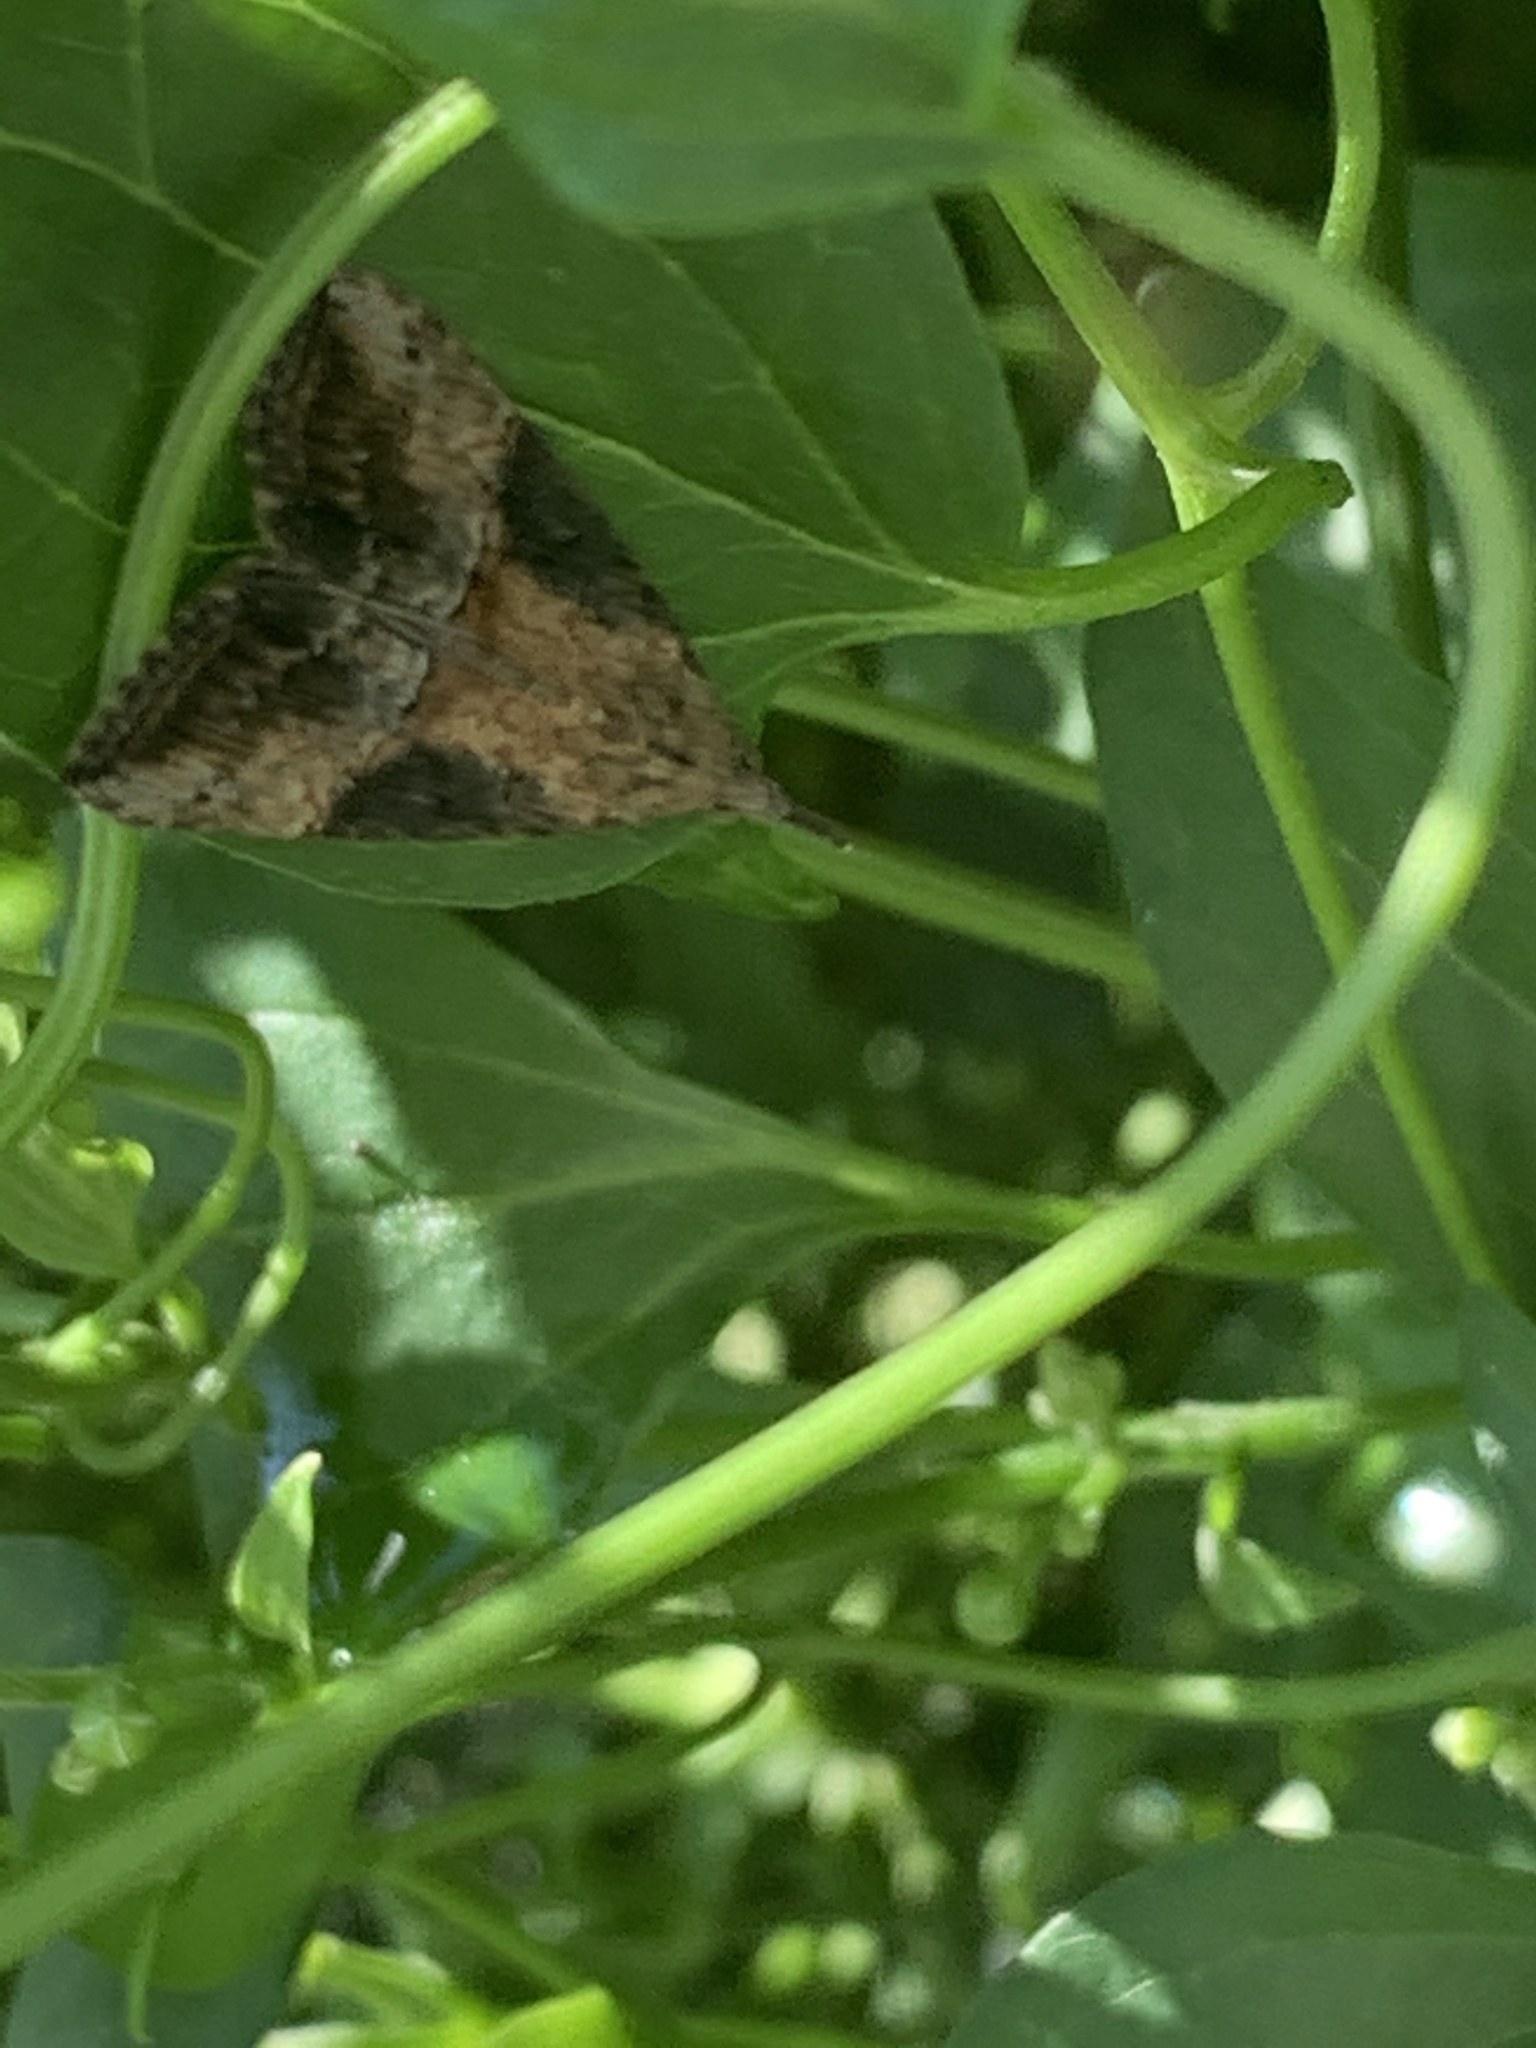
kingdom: Animalia
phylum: Arthropoda
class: Insecta
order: Lepidoptera
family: Erebidae
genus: Hypena
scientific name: Hypena scabra
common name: Green cloverworm
